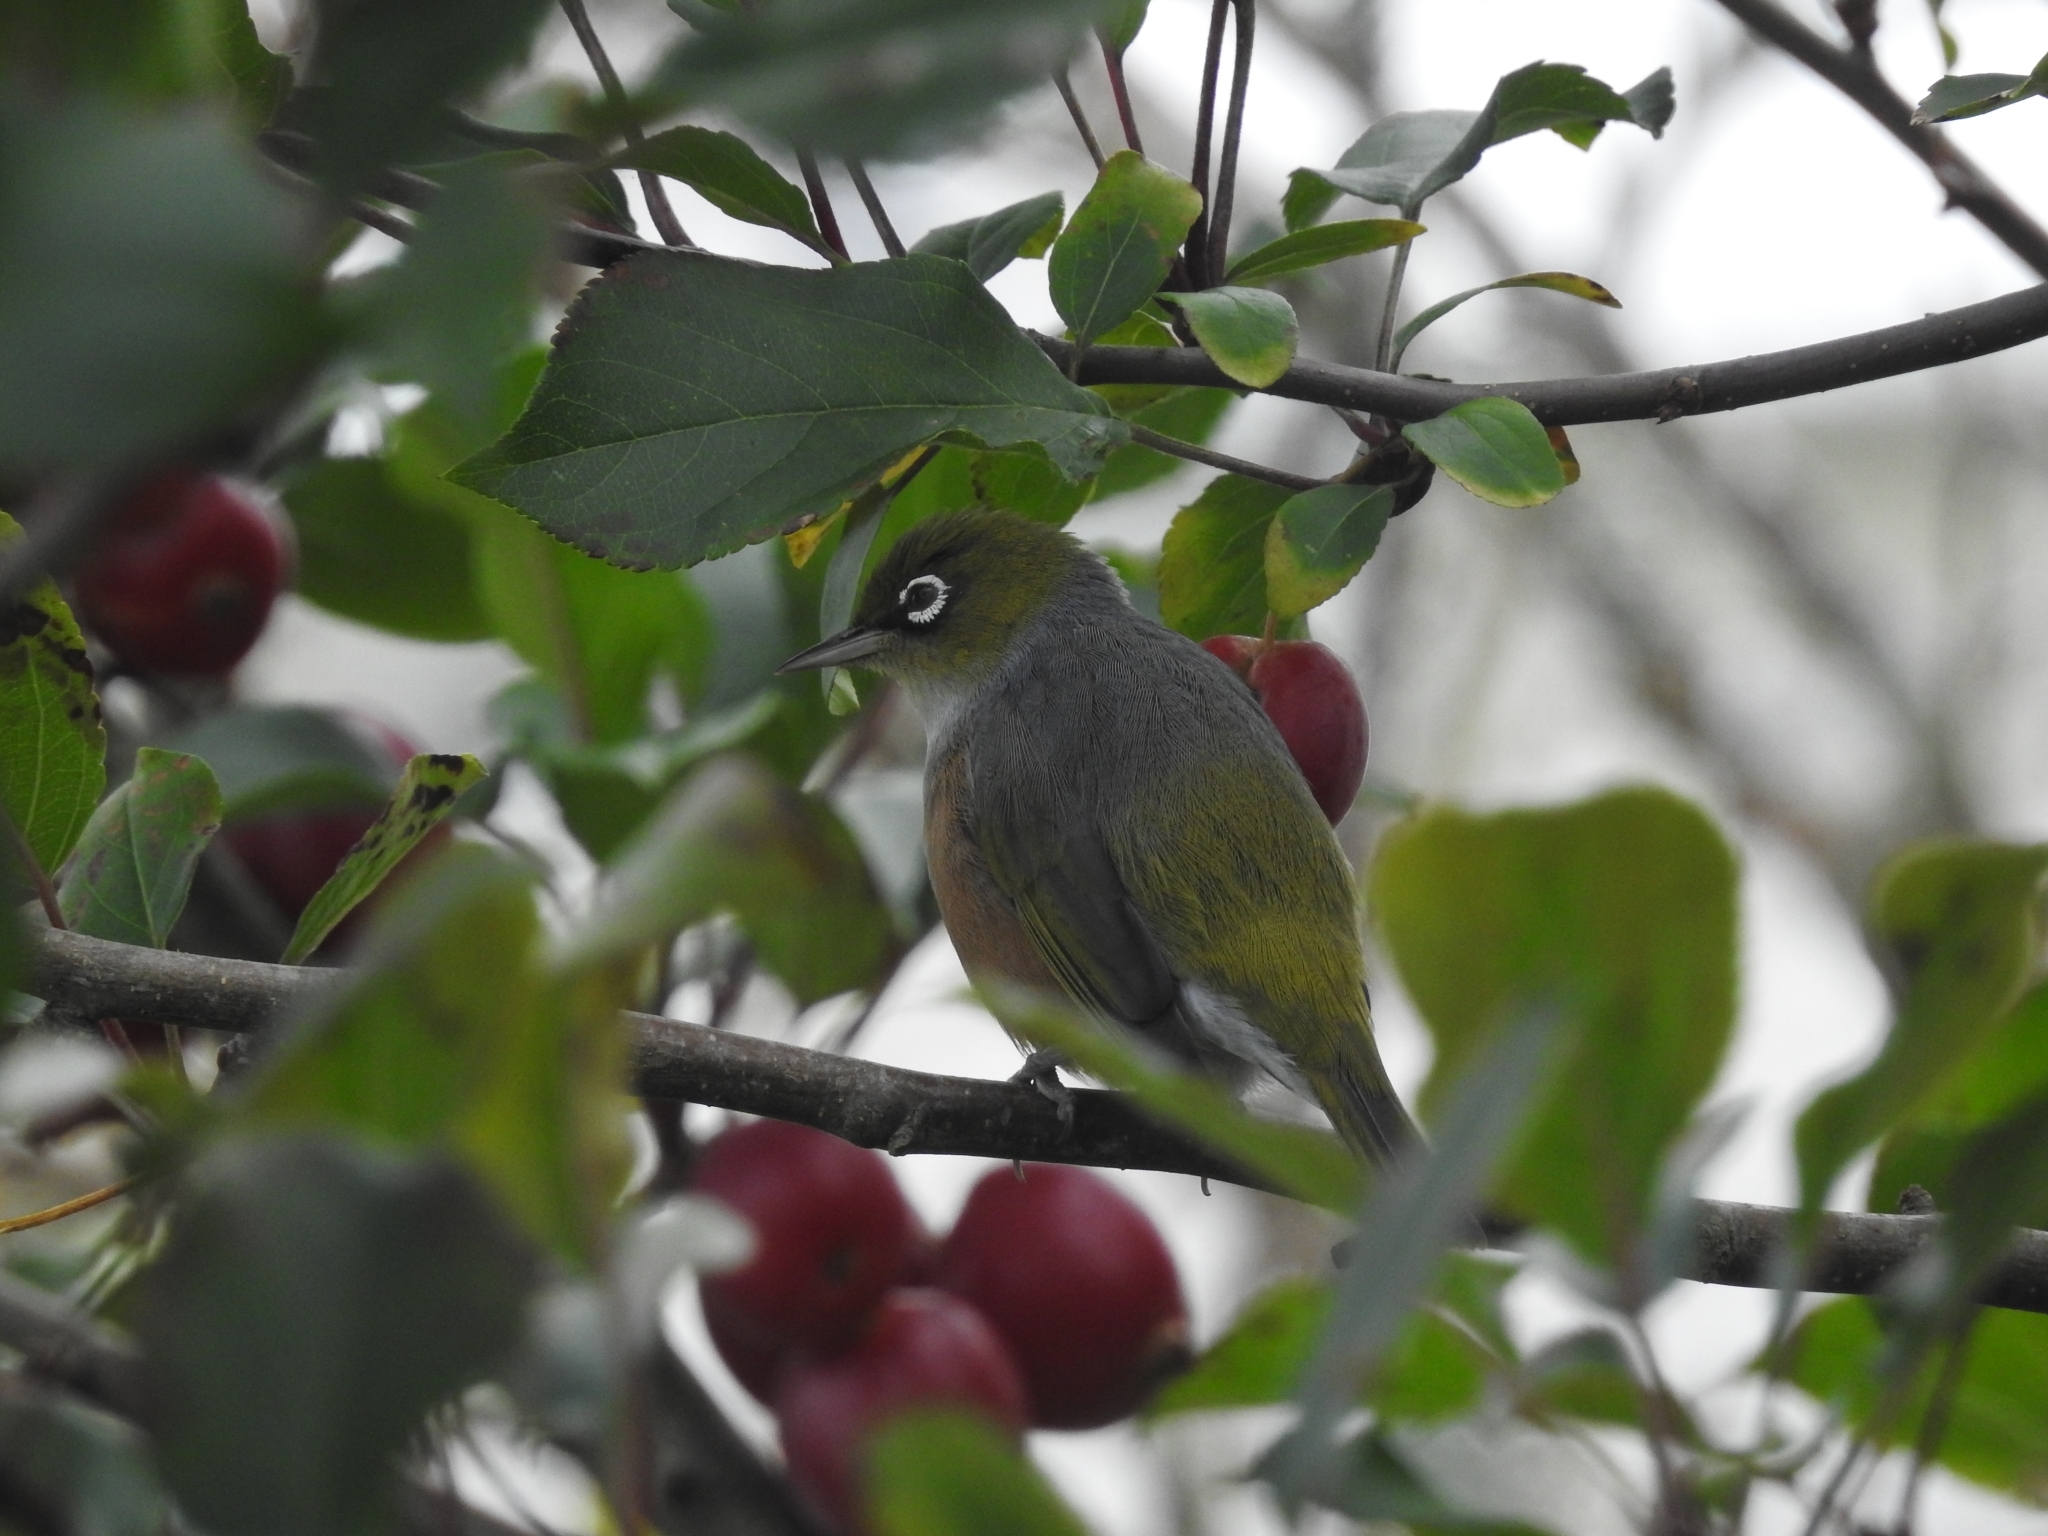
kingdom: Animalia
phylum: Chordata
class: Aves
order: Passeriformes
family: Zosteropidae
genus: Zosterops
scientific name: Zosterops lateralis
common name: Silvereye
